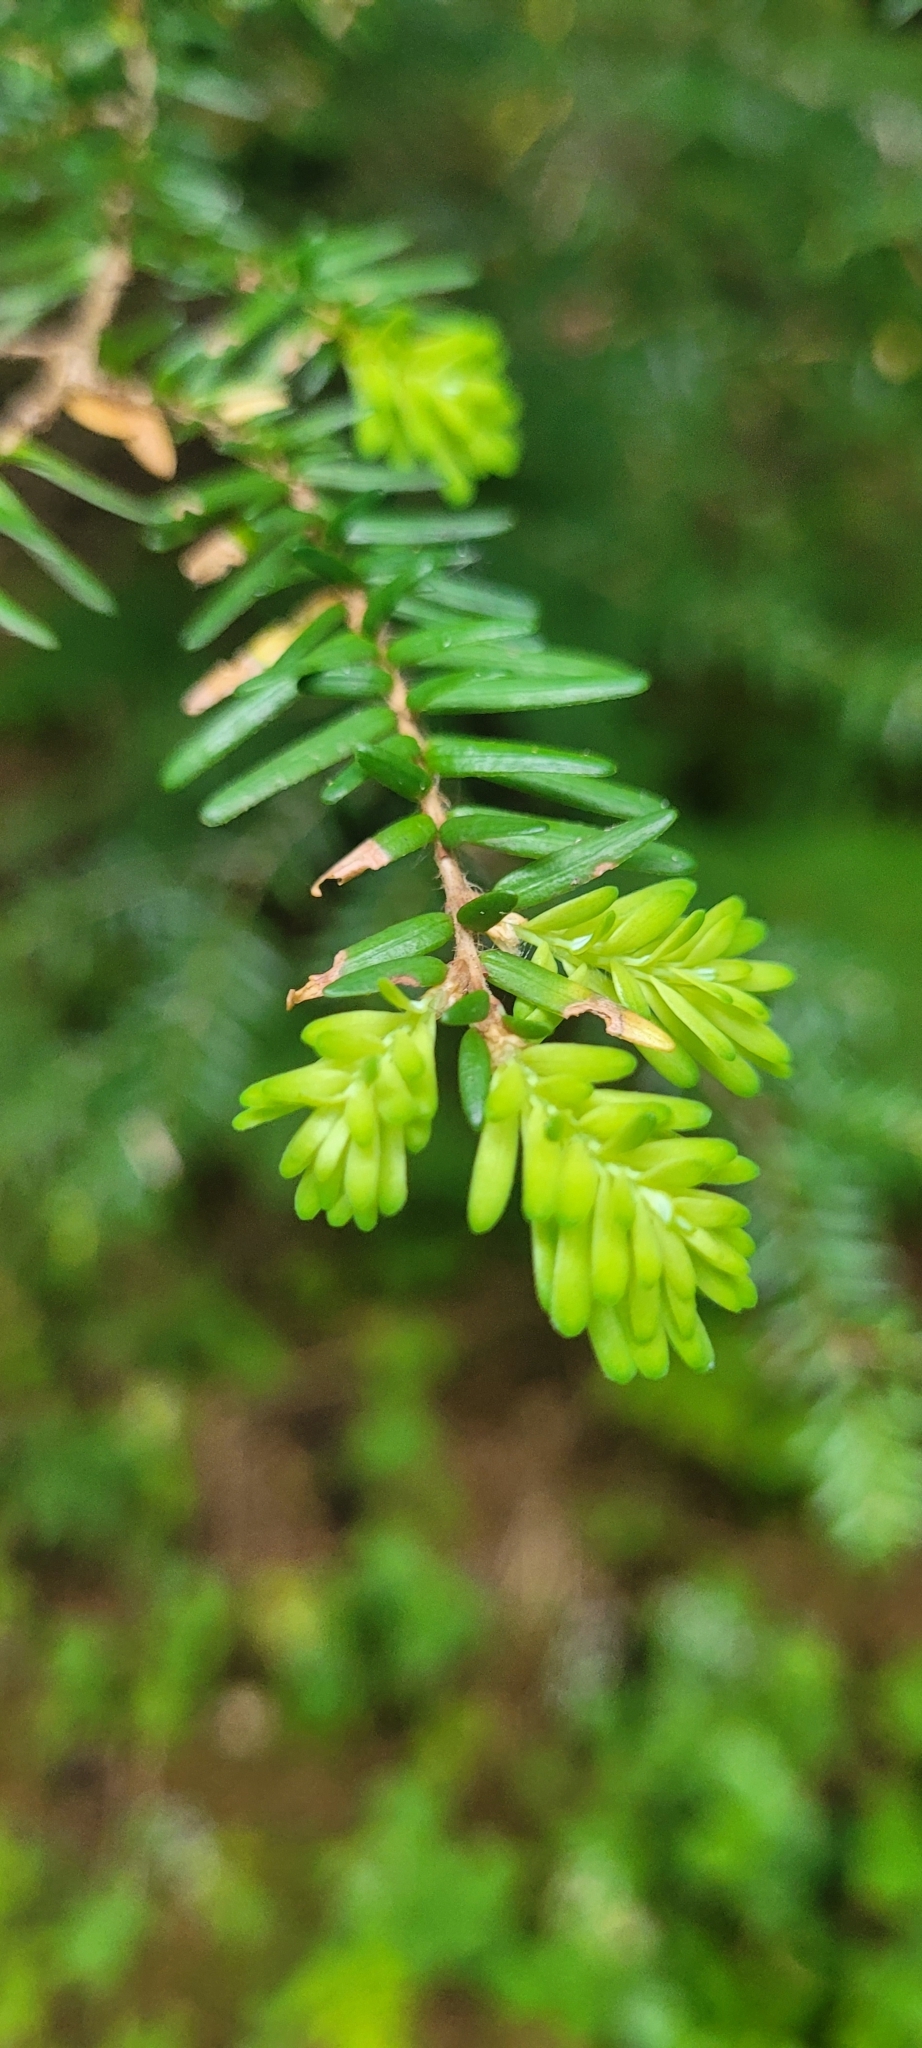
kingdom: Plantae
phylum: Tracheophyta
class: Pinopsida
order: Pinales
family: Pinaceae
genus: Tsuga
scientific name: Tsuga heterophylla
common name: Western hemlock
